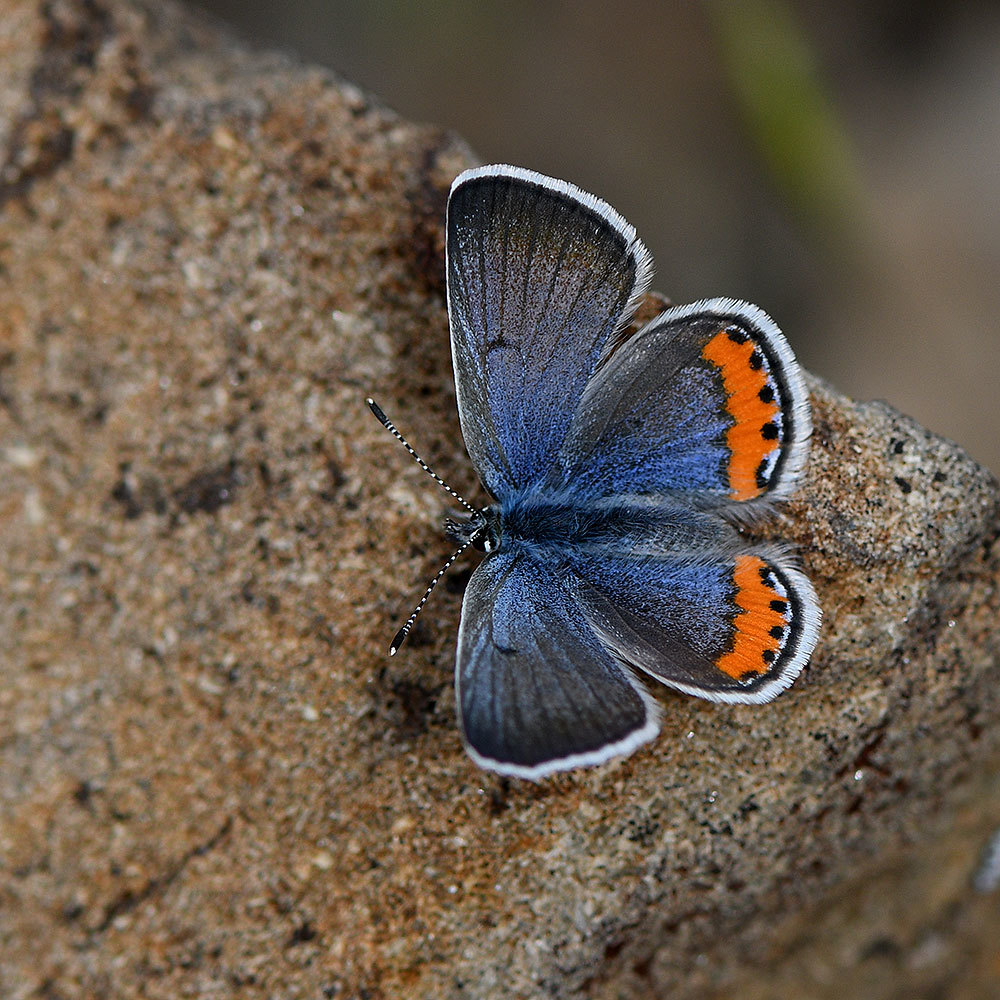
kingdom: Animalia
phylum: Arthropoda
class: Insecta
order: Lepidoptera
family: Lycaenidae
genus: Icaricia
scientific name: Icaricia acmon
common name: Acmon blue
